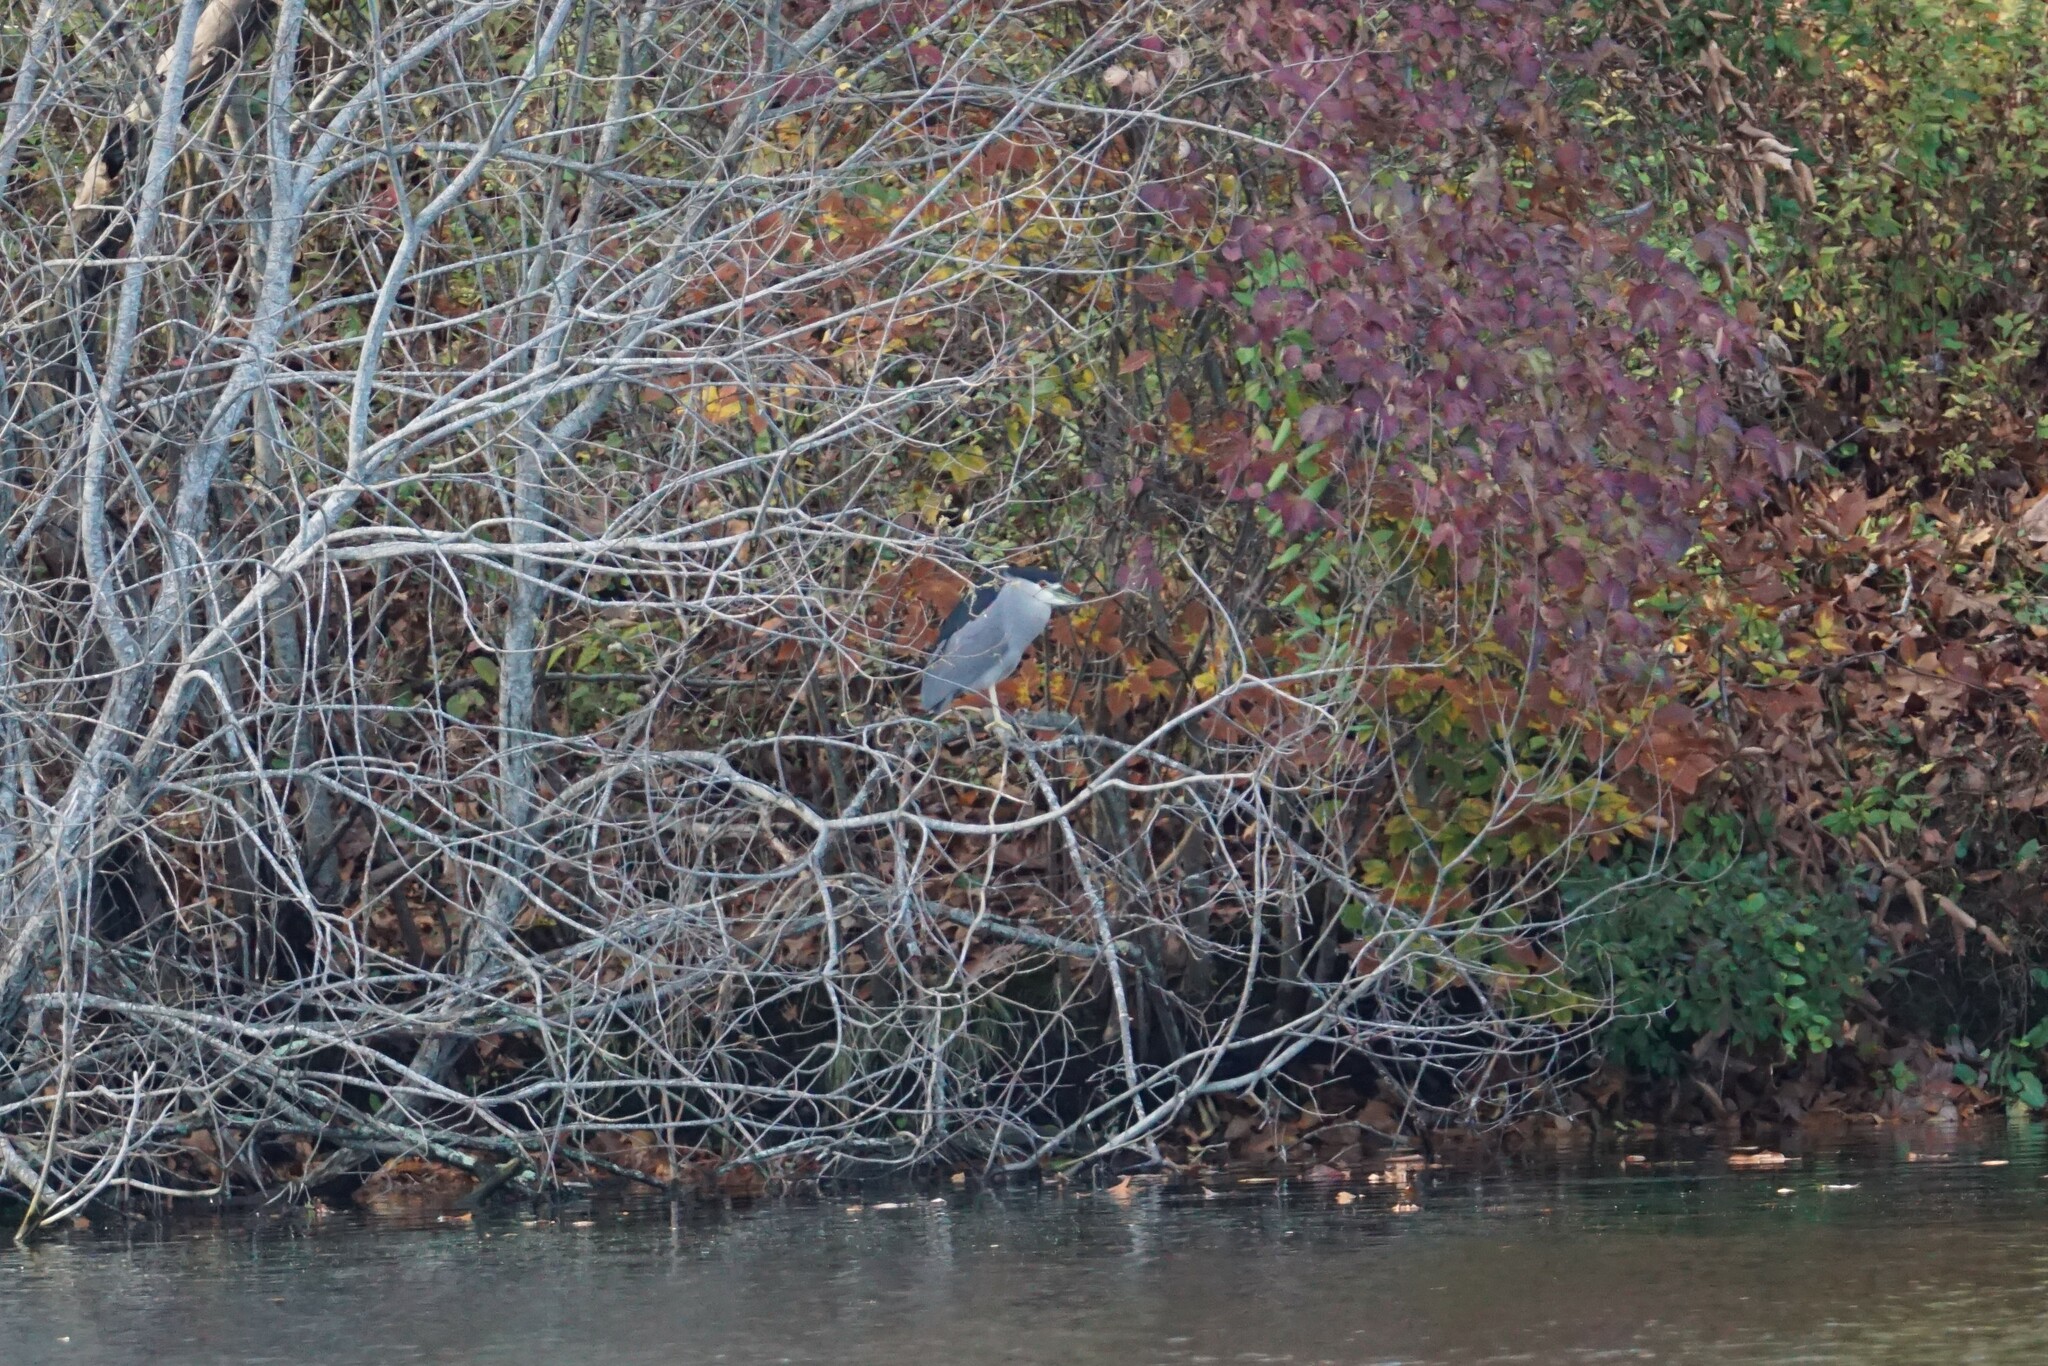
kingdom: Animalia
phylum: Chordata
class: Aves
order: Pelecaniformes
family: Ardeidae
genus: Nycticorax
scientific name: Nycticorax nycticorax
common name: Black-crowned night heron
